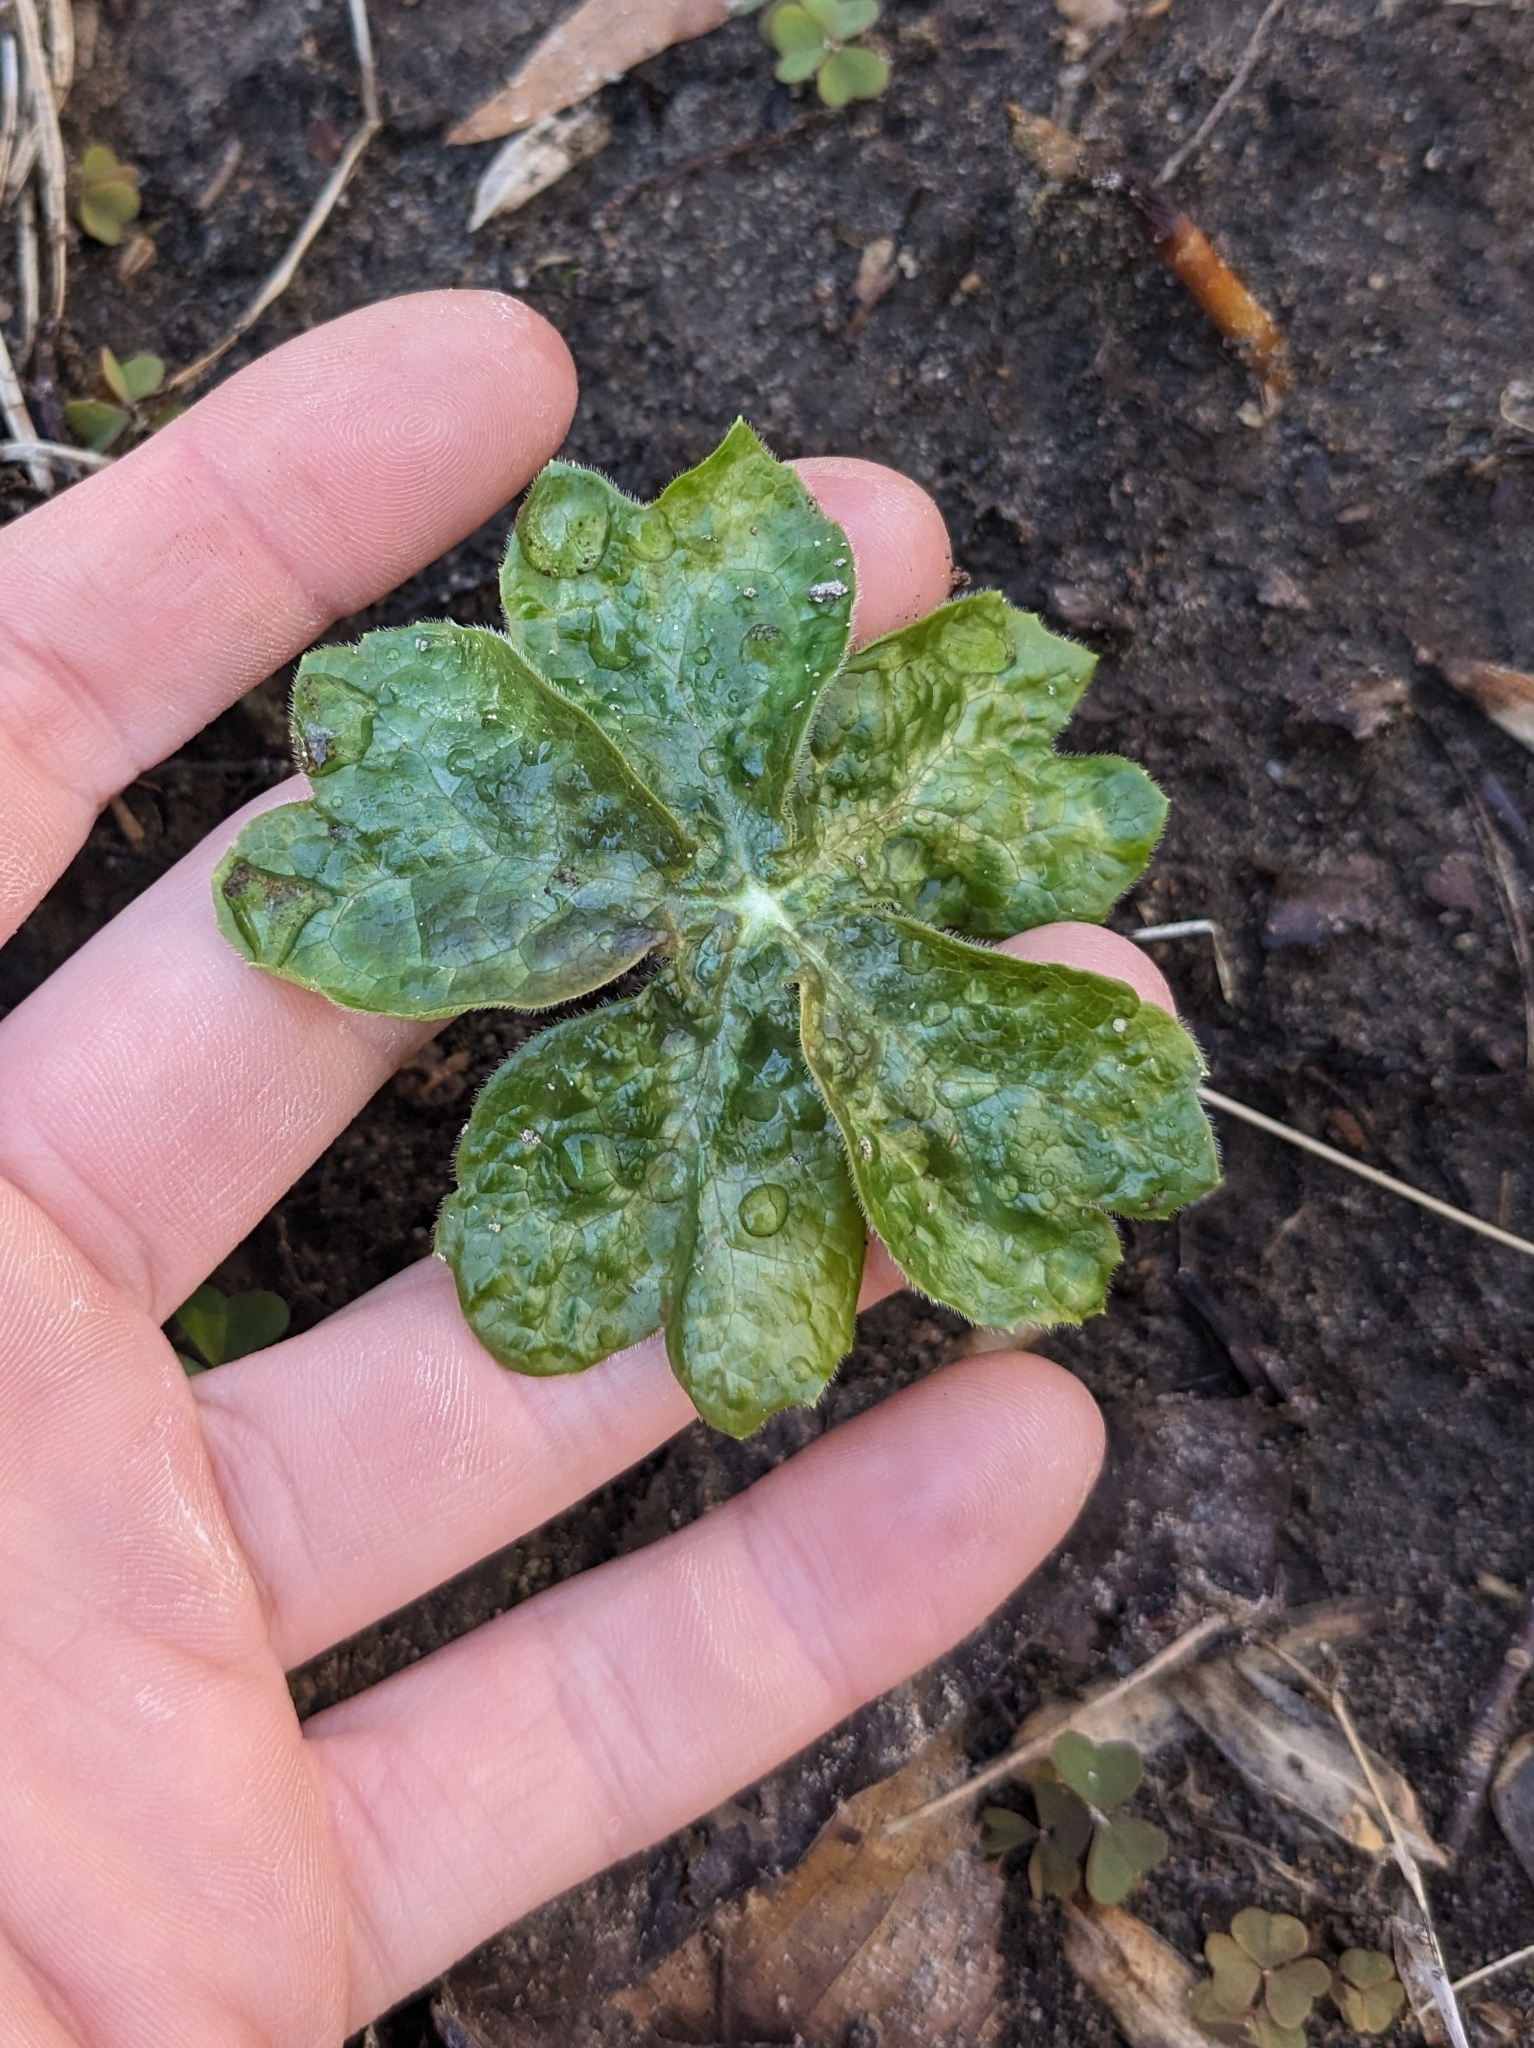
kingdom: Plantae
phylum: Tracheophyta
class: Magnoliopsida
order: Ranunculales
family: Berberidaceae
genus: Podophyllum
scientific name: Podophyllum peltatum
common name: Wild mandrake
